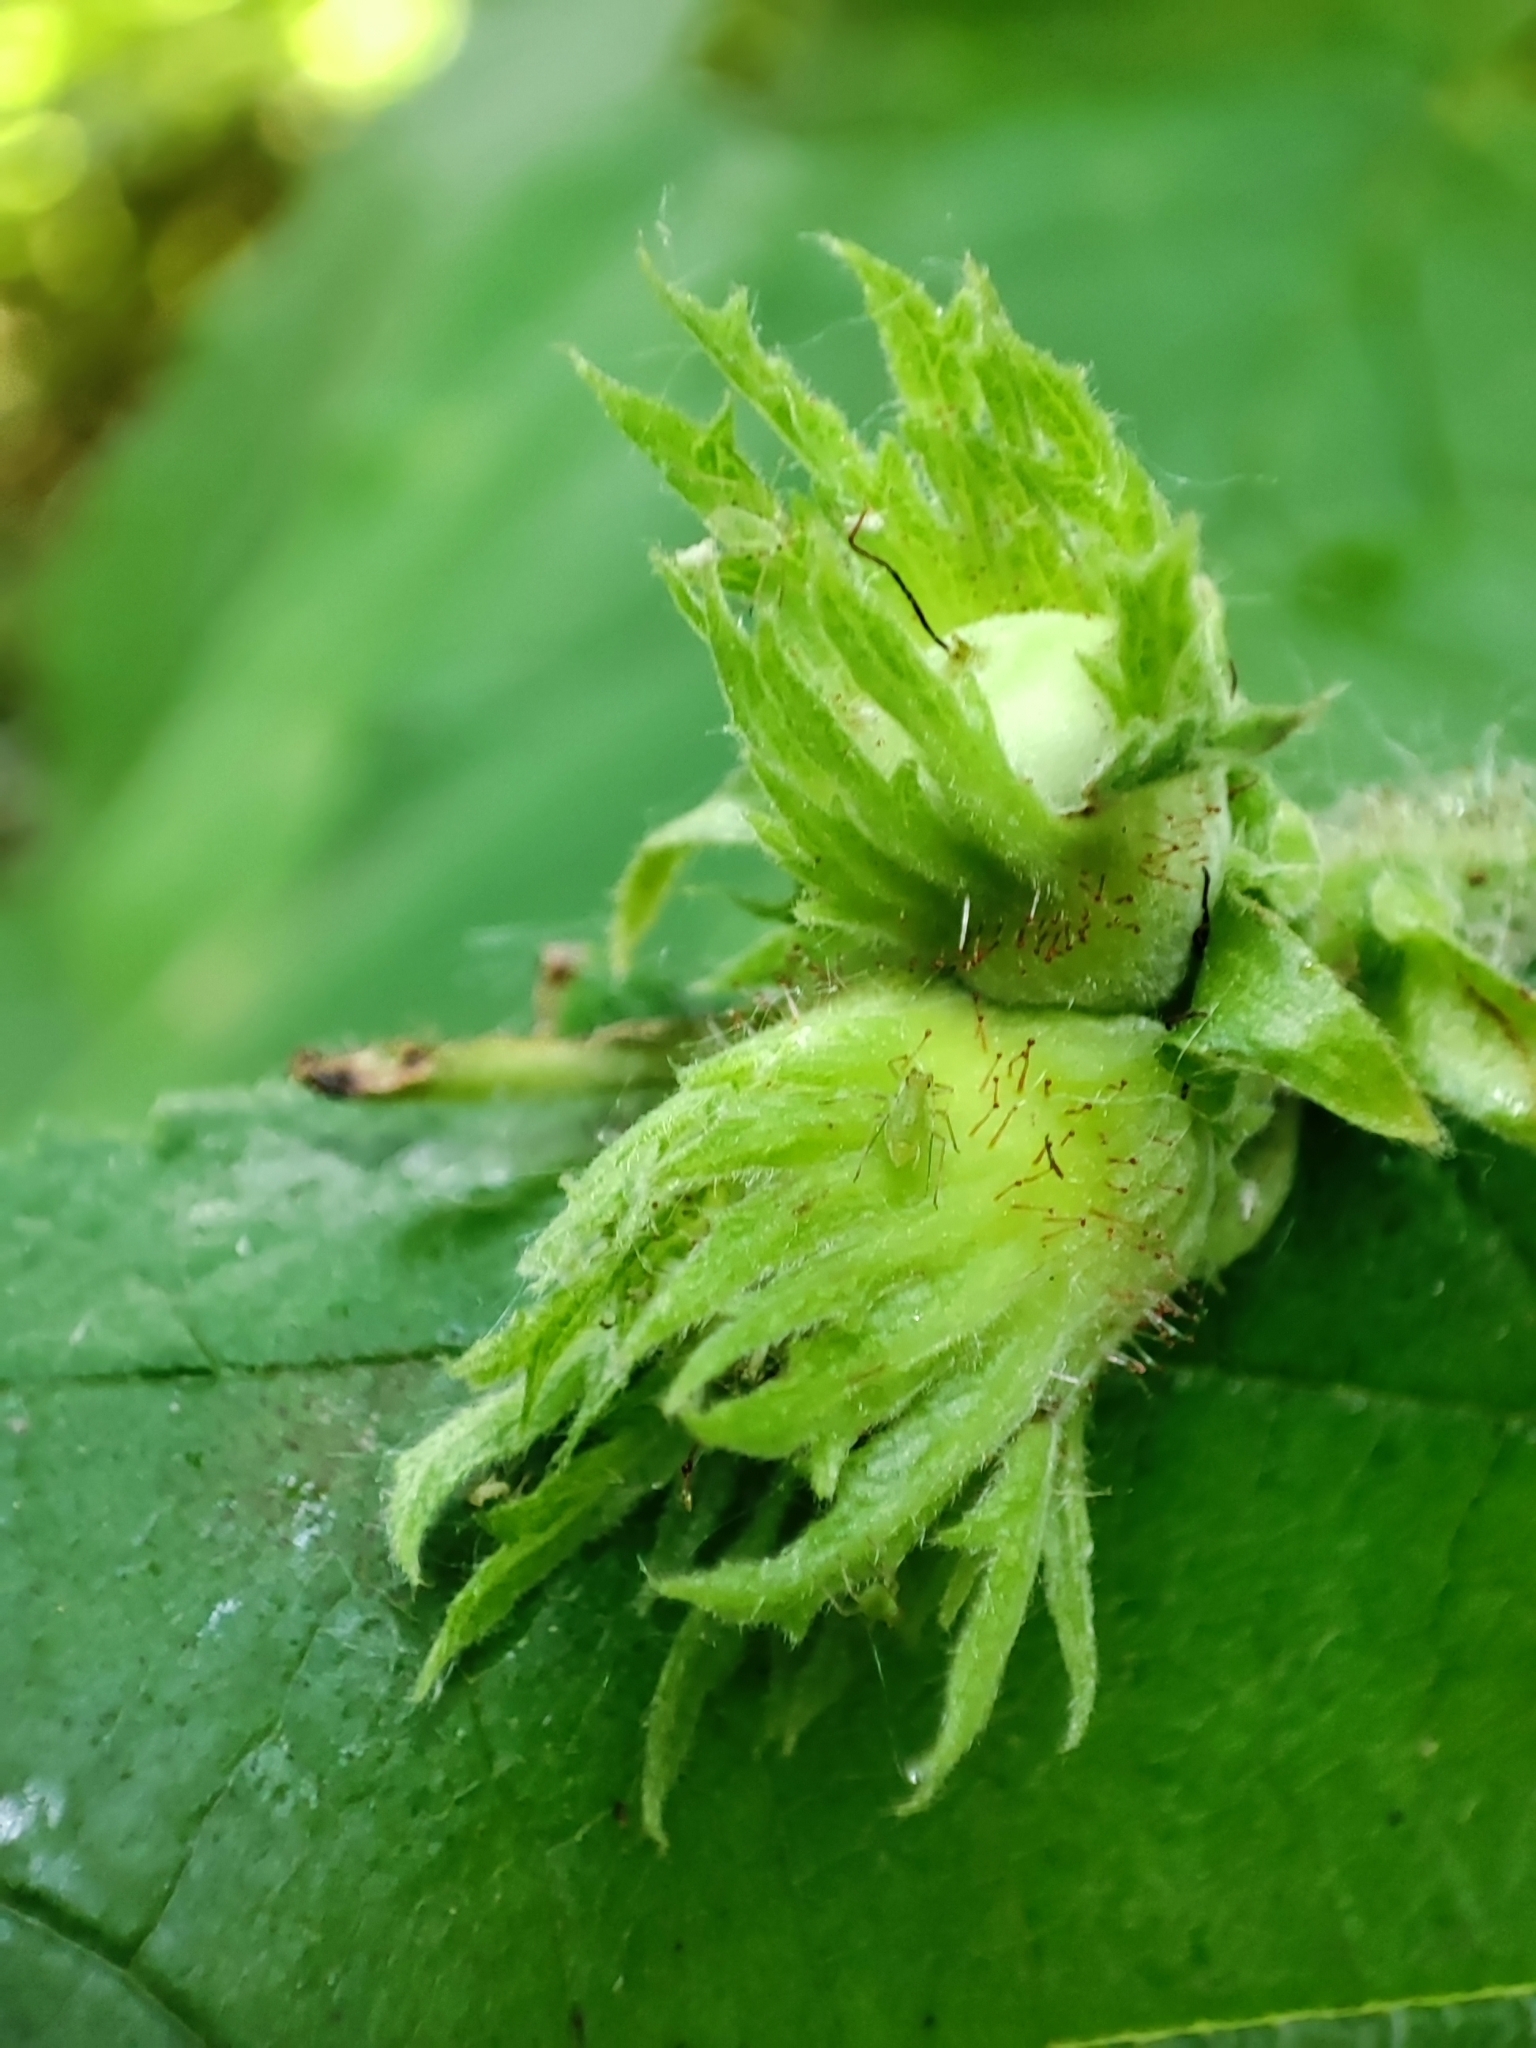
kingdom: Plantae
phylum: Tracheophyta
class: Magnoliopsida
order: Fagales
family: Betulaceae
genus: Corylus
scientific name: Corylus avellana
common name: European hazel
